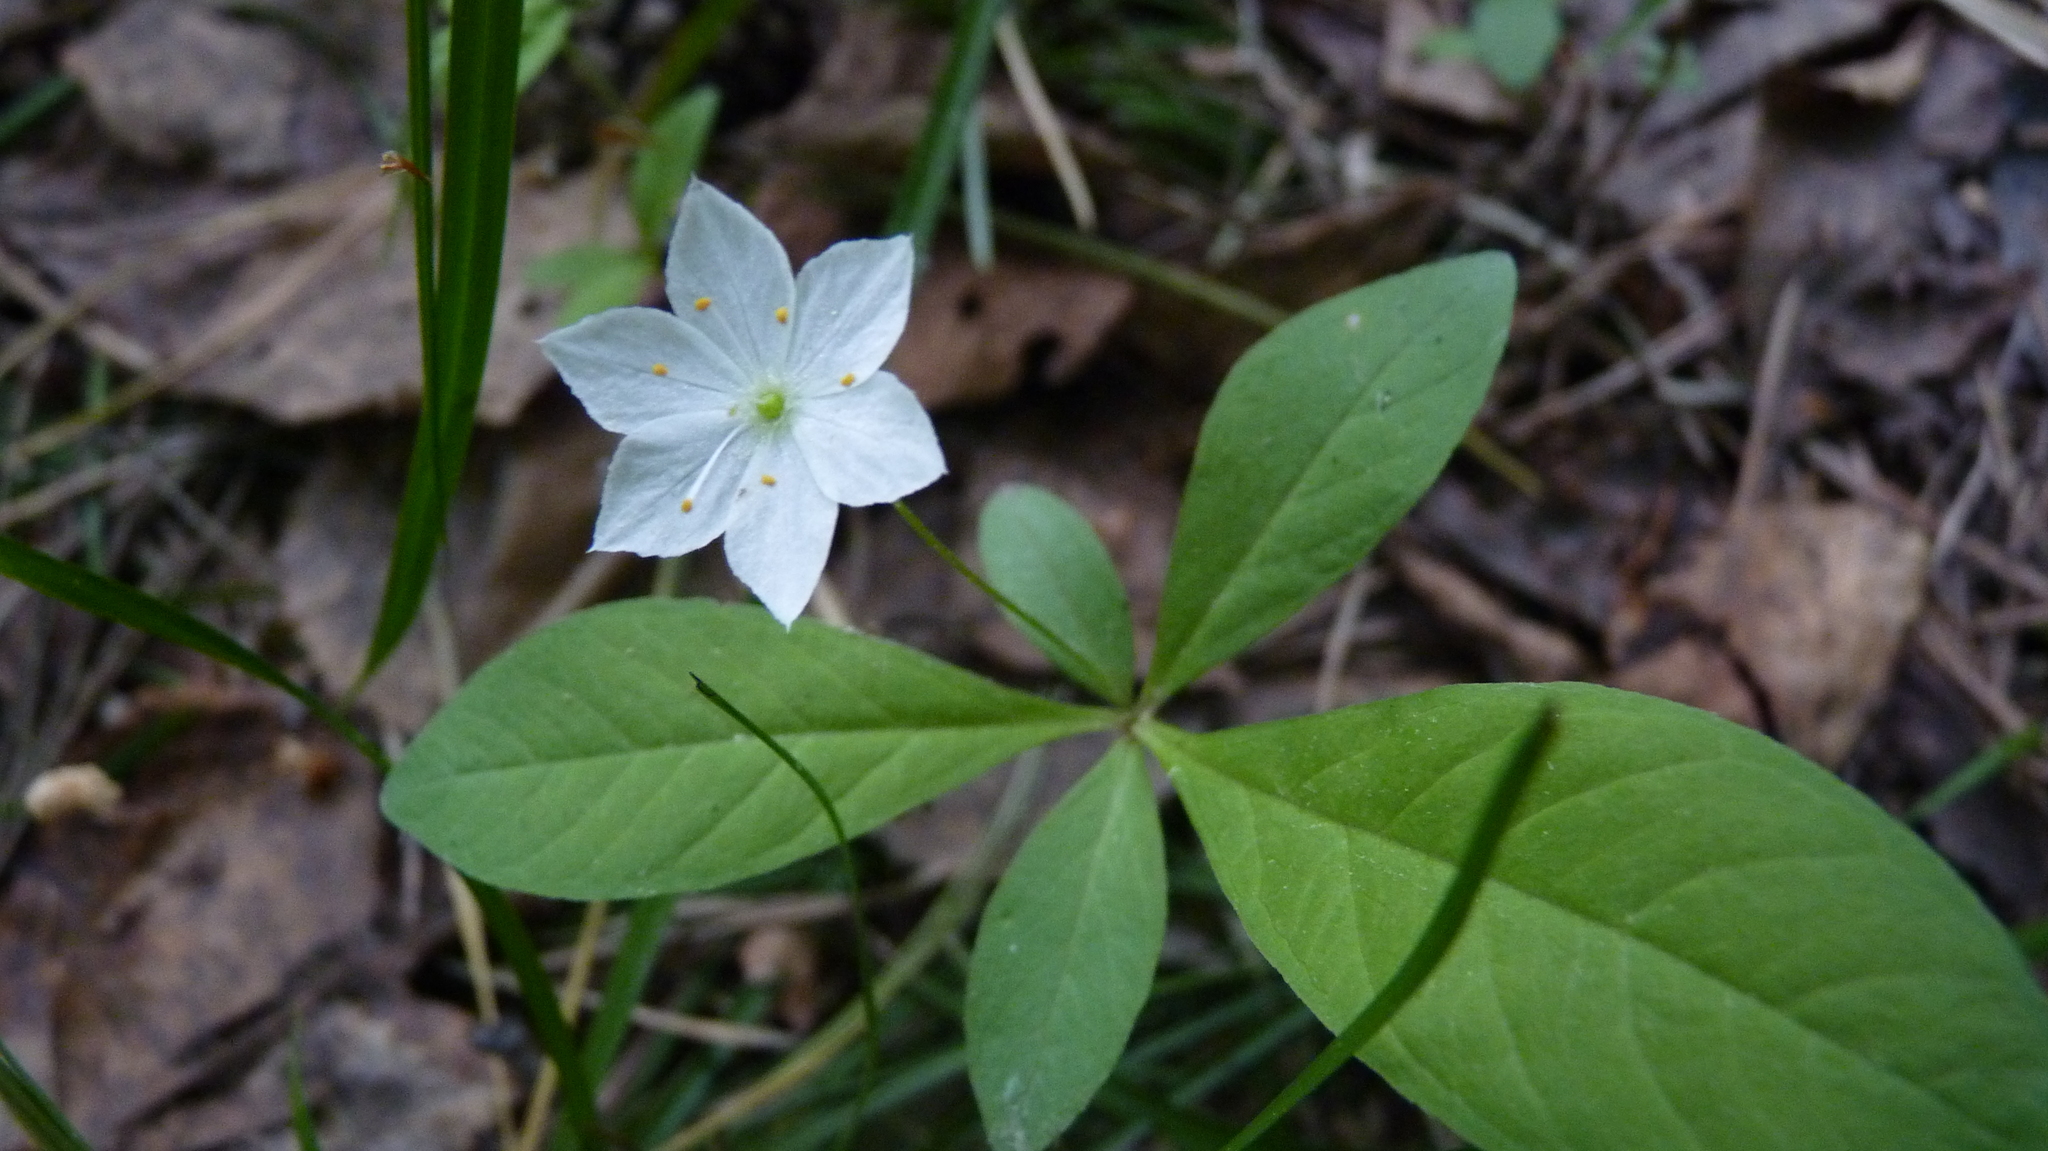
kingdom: Plantae
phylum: Tracheophyta
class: Magnoliopsida
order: Ericales
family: Primulaceae
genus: Lysimachia
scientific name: Lysimachia europaea
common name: Arctic starflower
